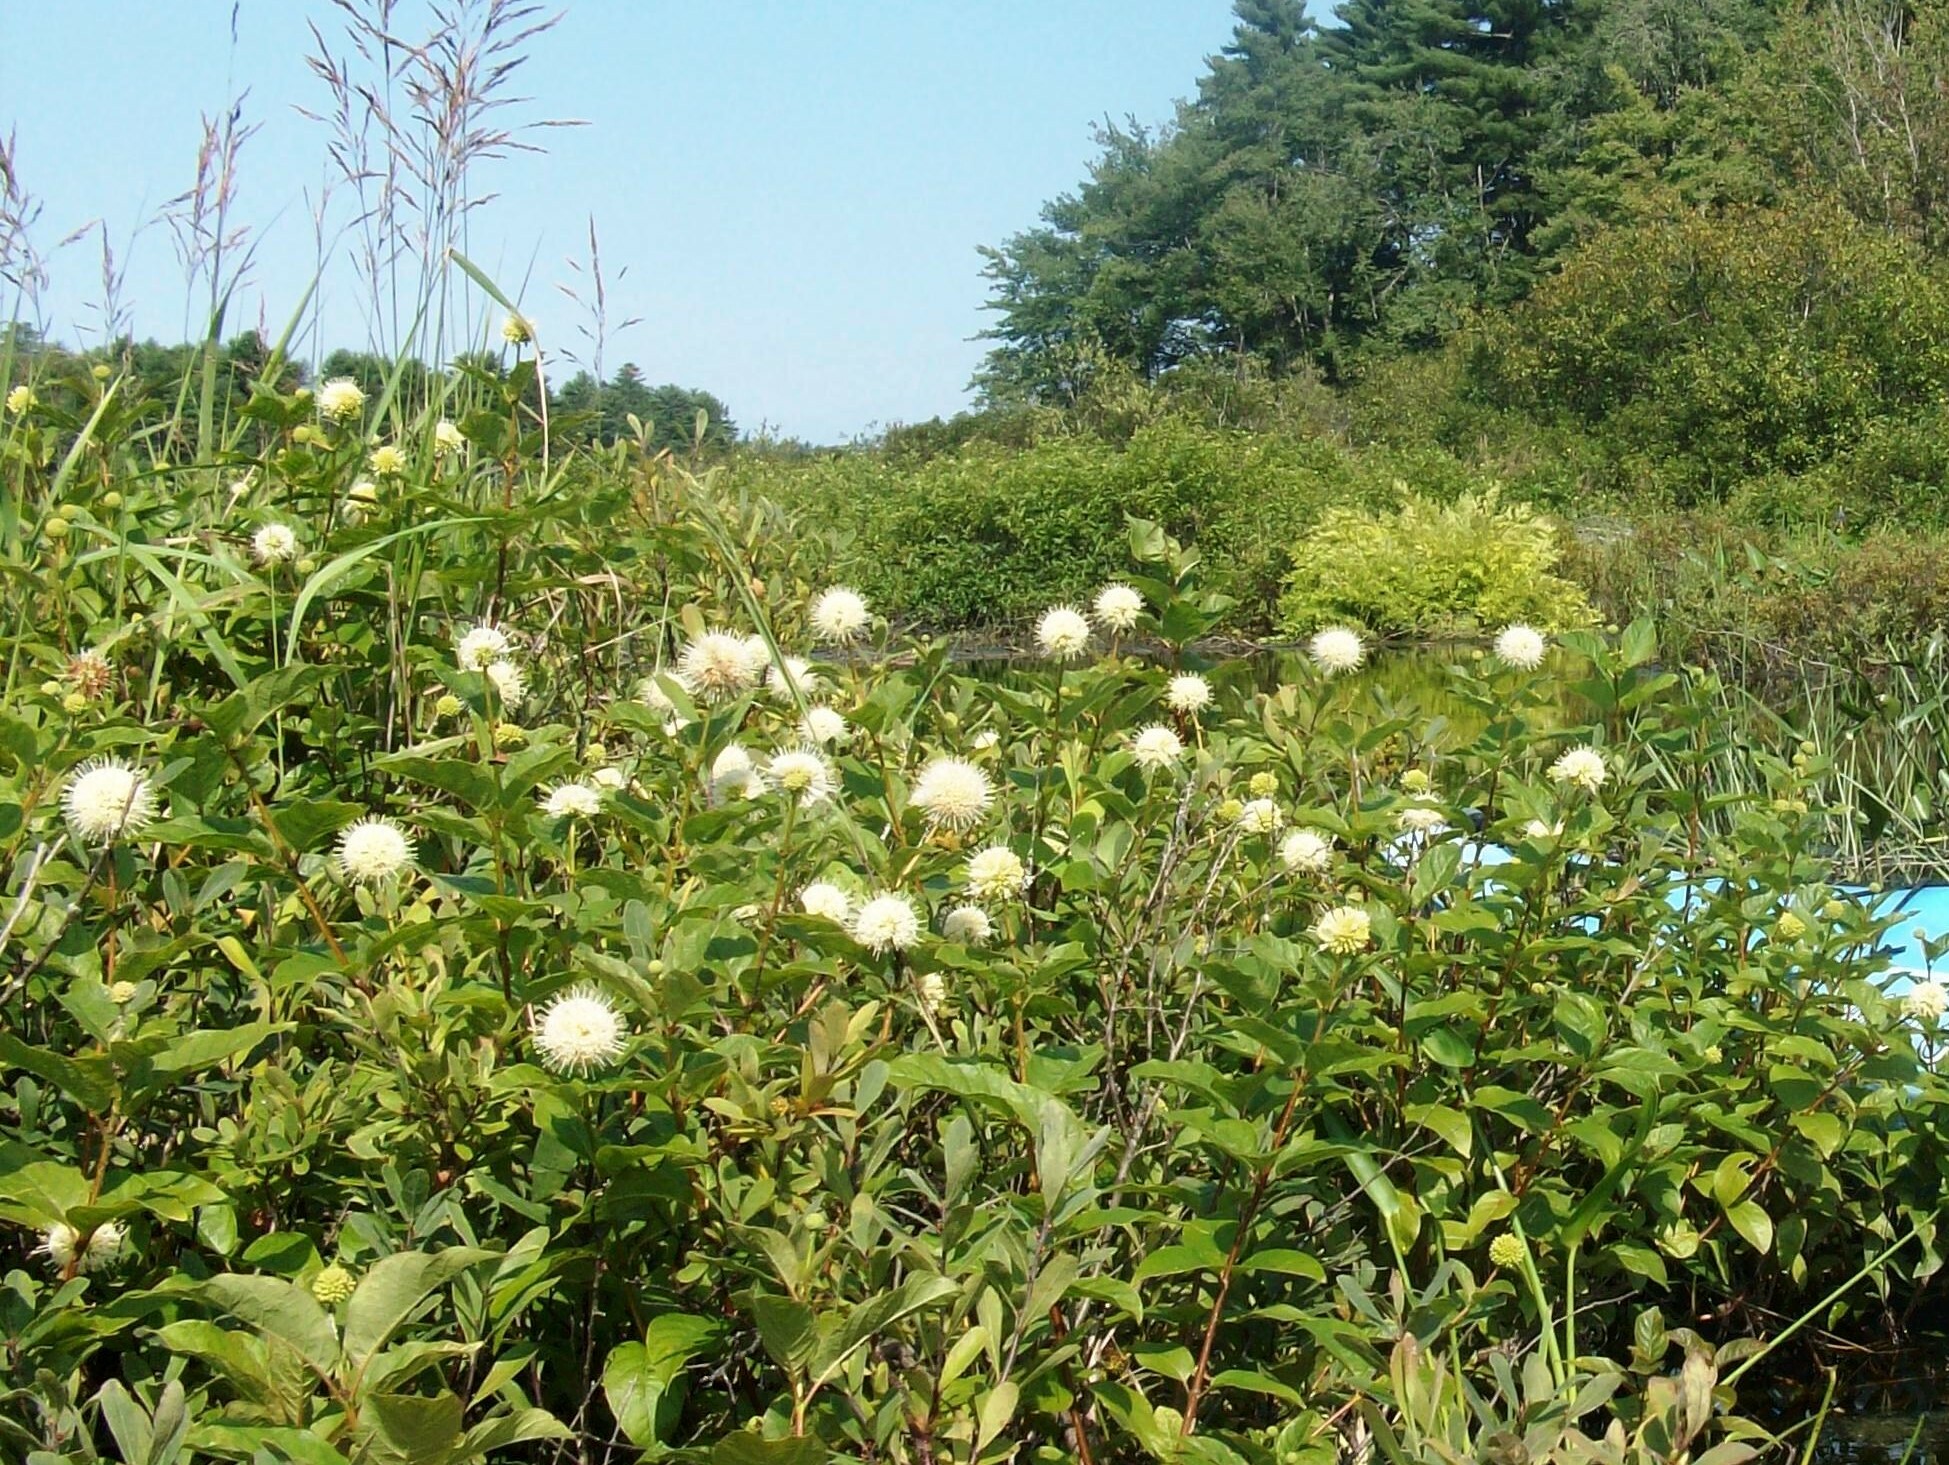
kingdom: Plantae
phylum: Tracheophyta
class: Magnoliopsida
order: Gentianales
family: Rubiaceae
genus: Cephalanthus
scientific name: Cephalanthus occidentalis
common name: Button-willow
